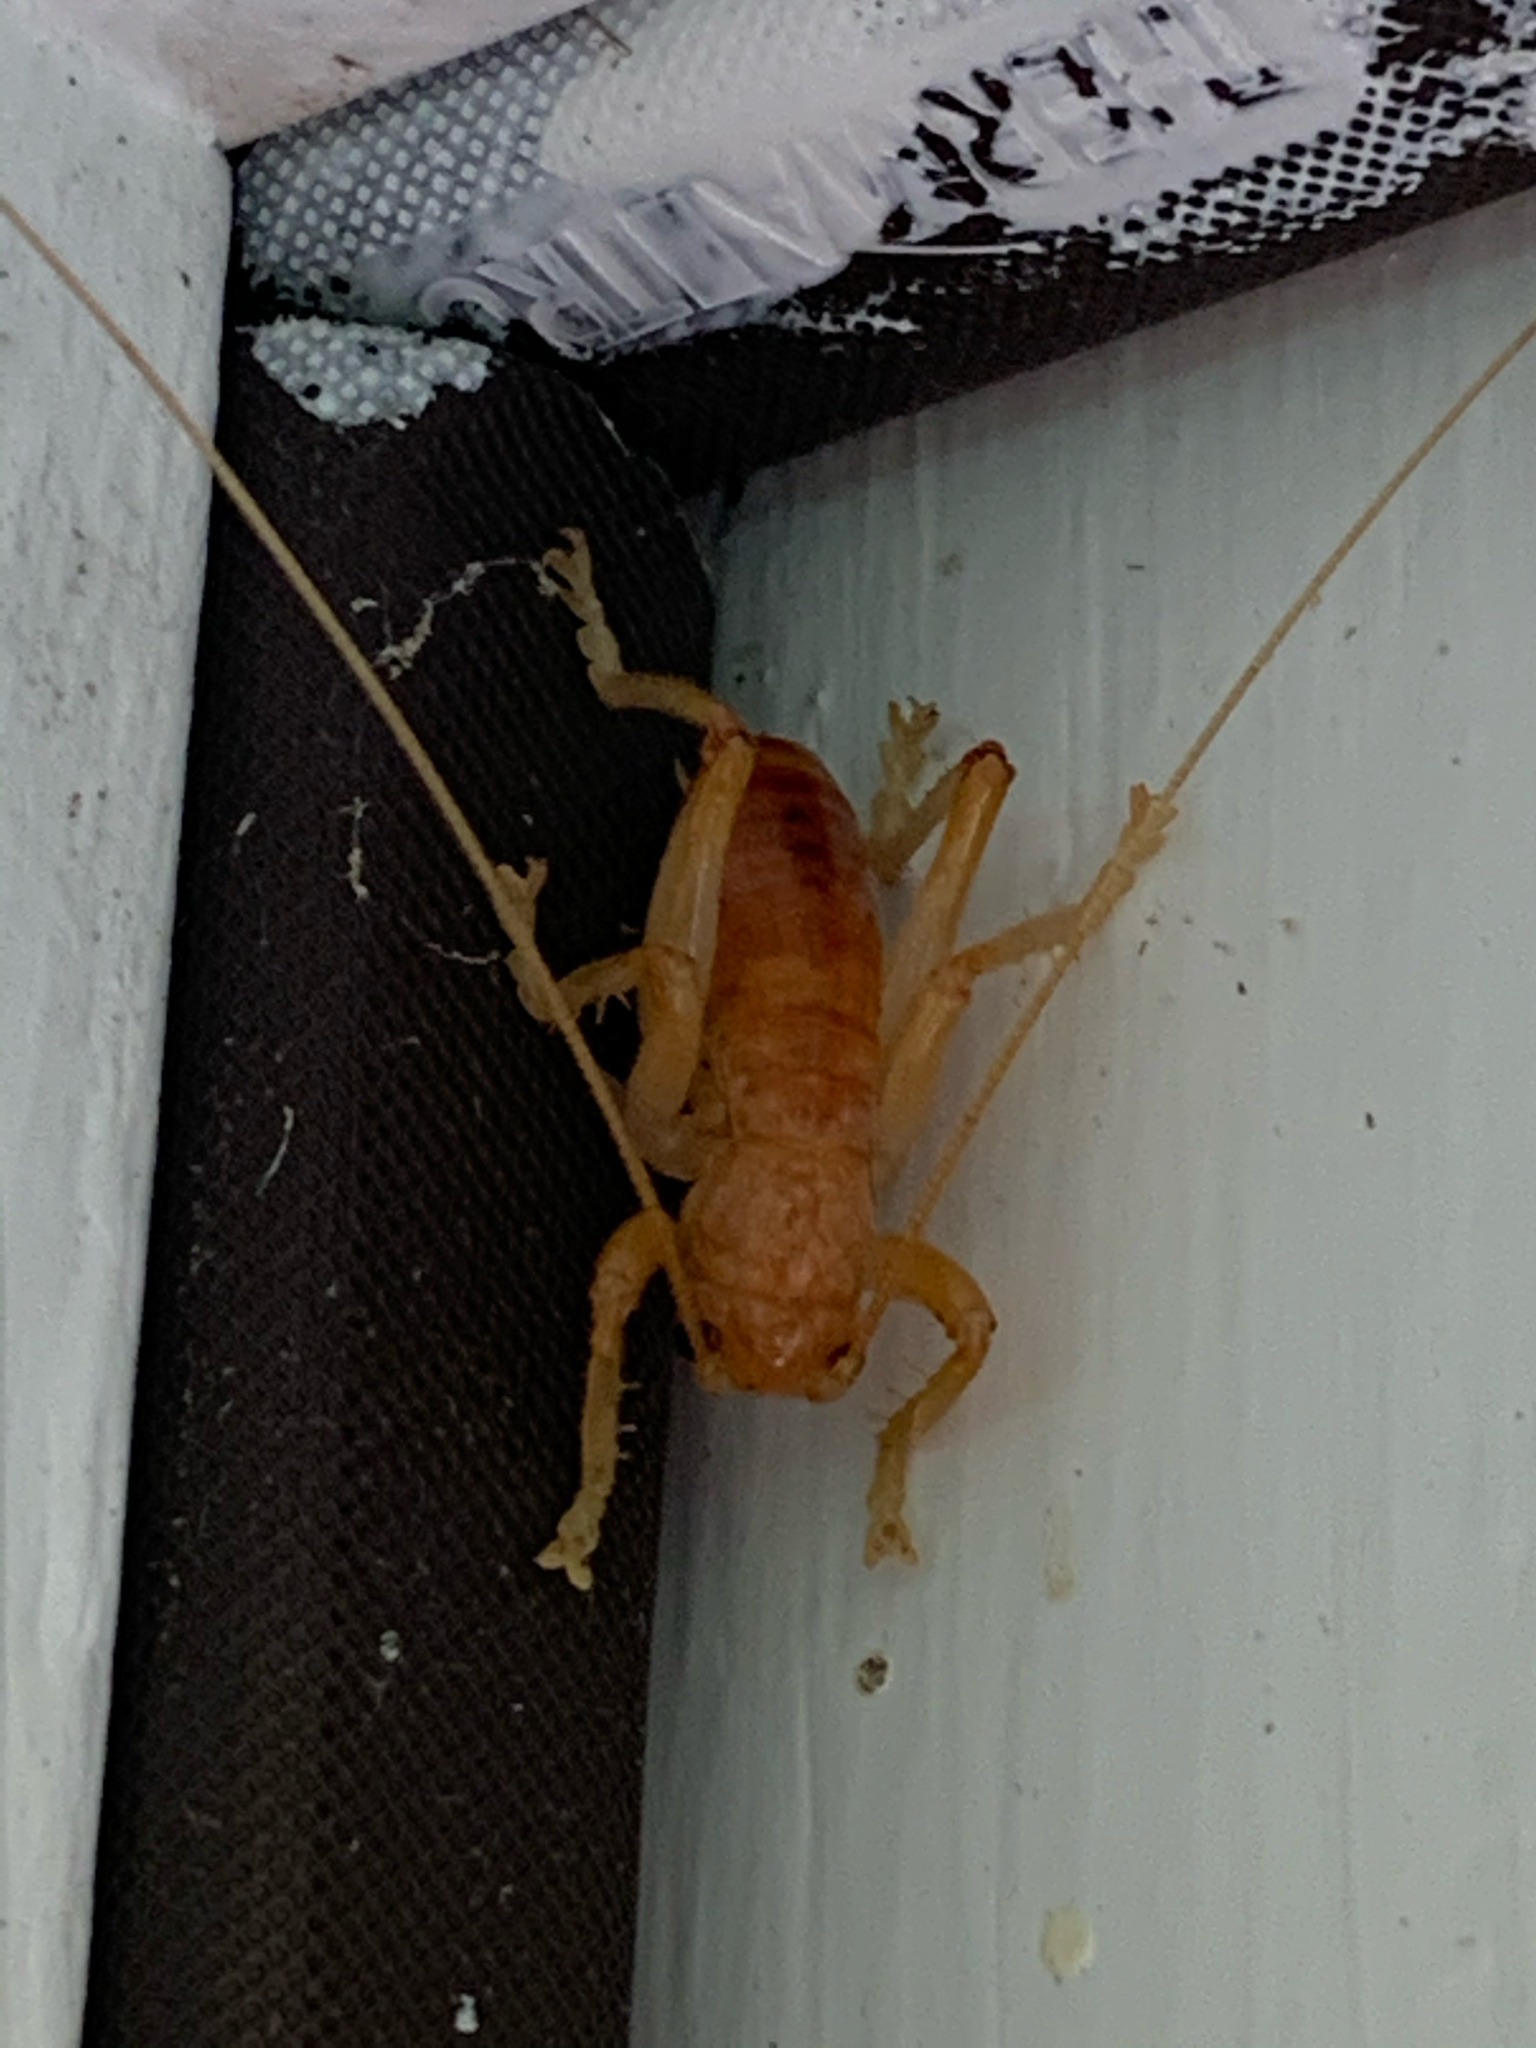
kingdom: Animalia
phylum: Arthropoda
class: Insecta
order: Orthoptera
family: Gryllacrididae
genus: Camptonotus
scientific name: Camptonotus carolinensis
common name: Carolina leaf-roller
